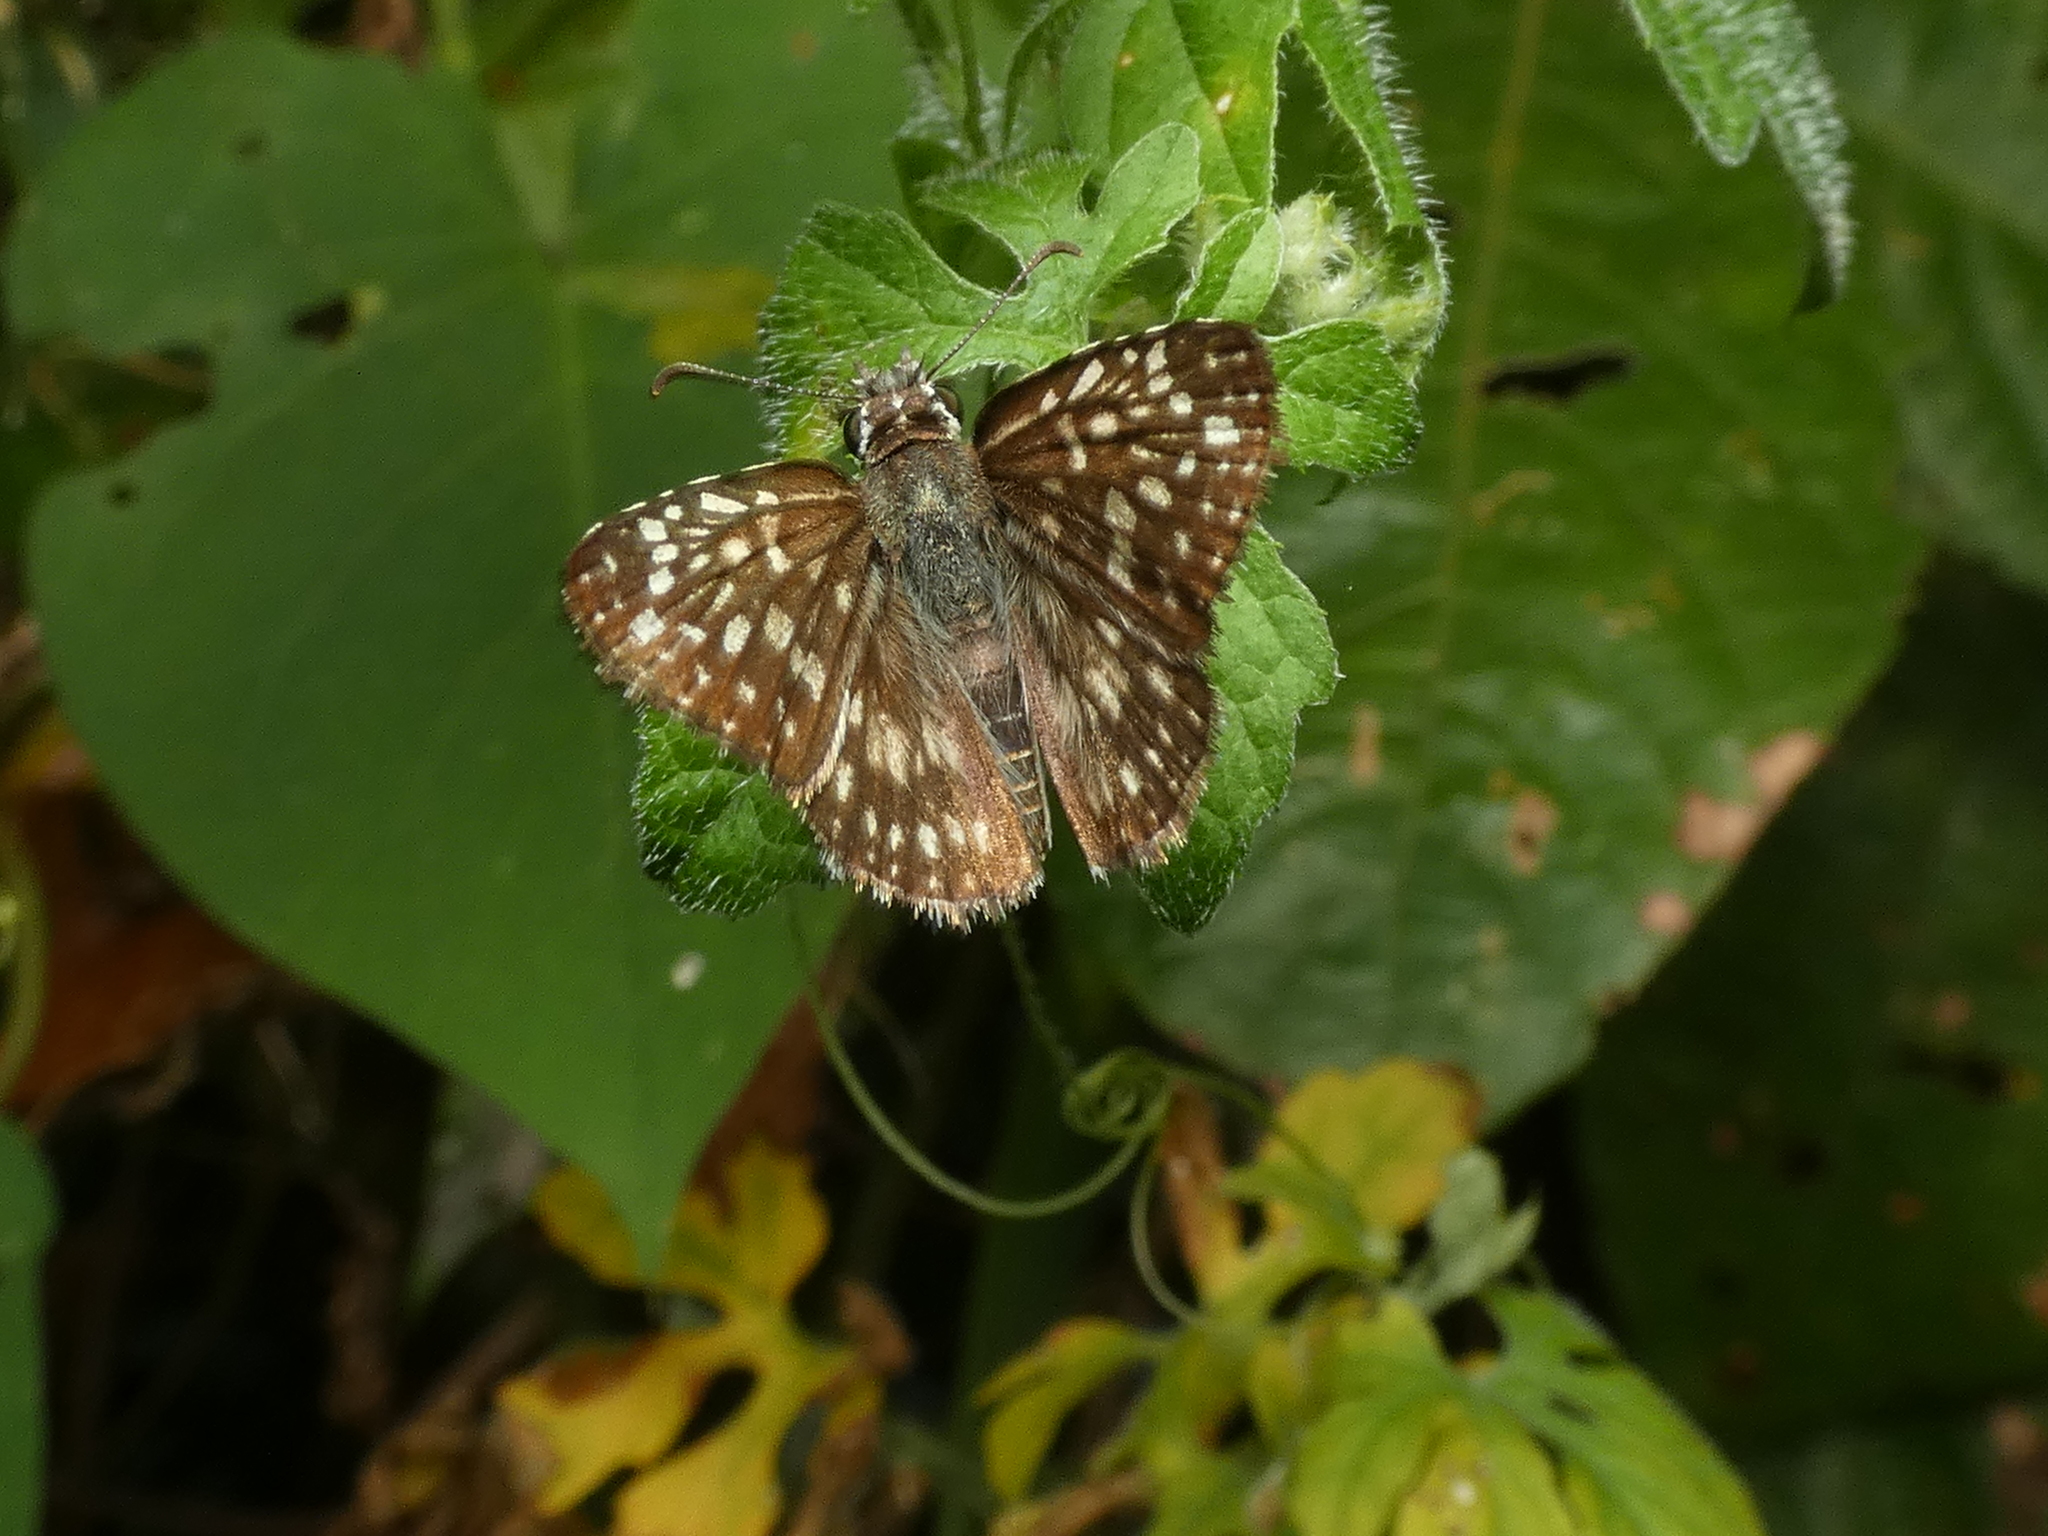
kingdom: Animalia
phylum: Arthropoda
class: Insecta
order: Lepidoptera
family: Hesperiidae
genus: Pyrgus
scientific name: Pyrgus oileus
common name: Tropical checkered-skipper
